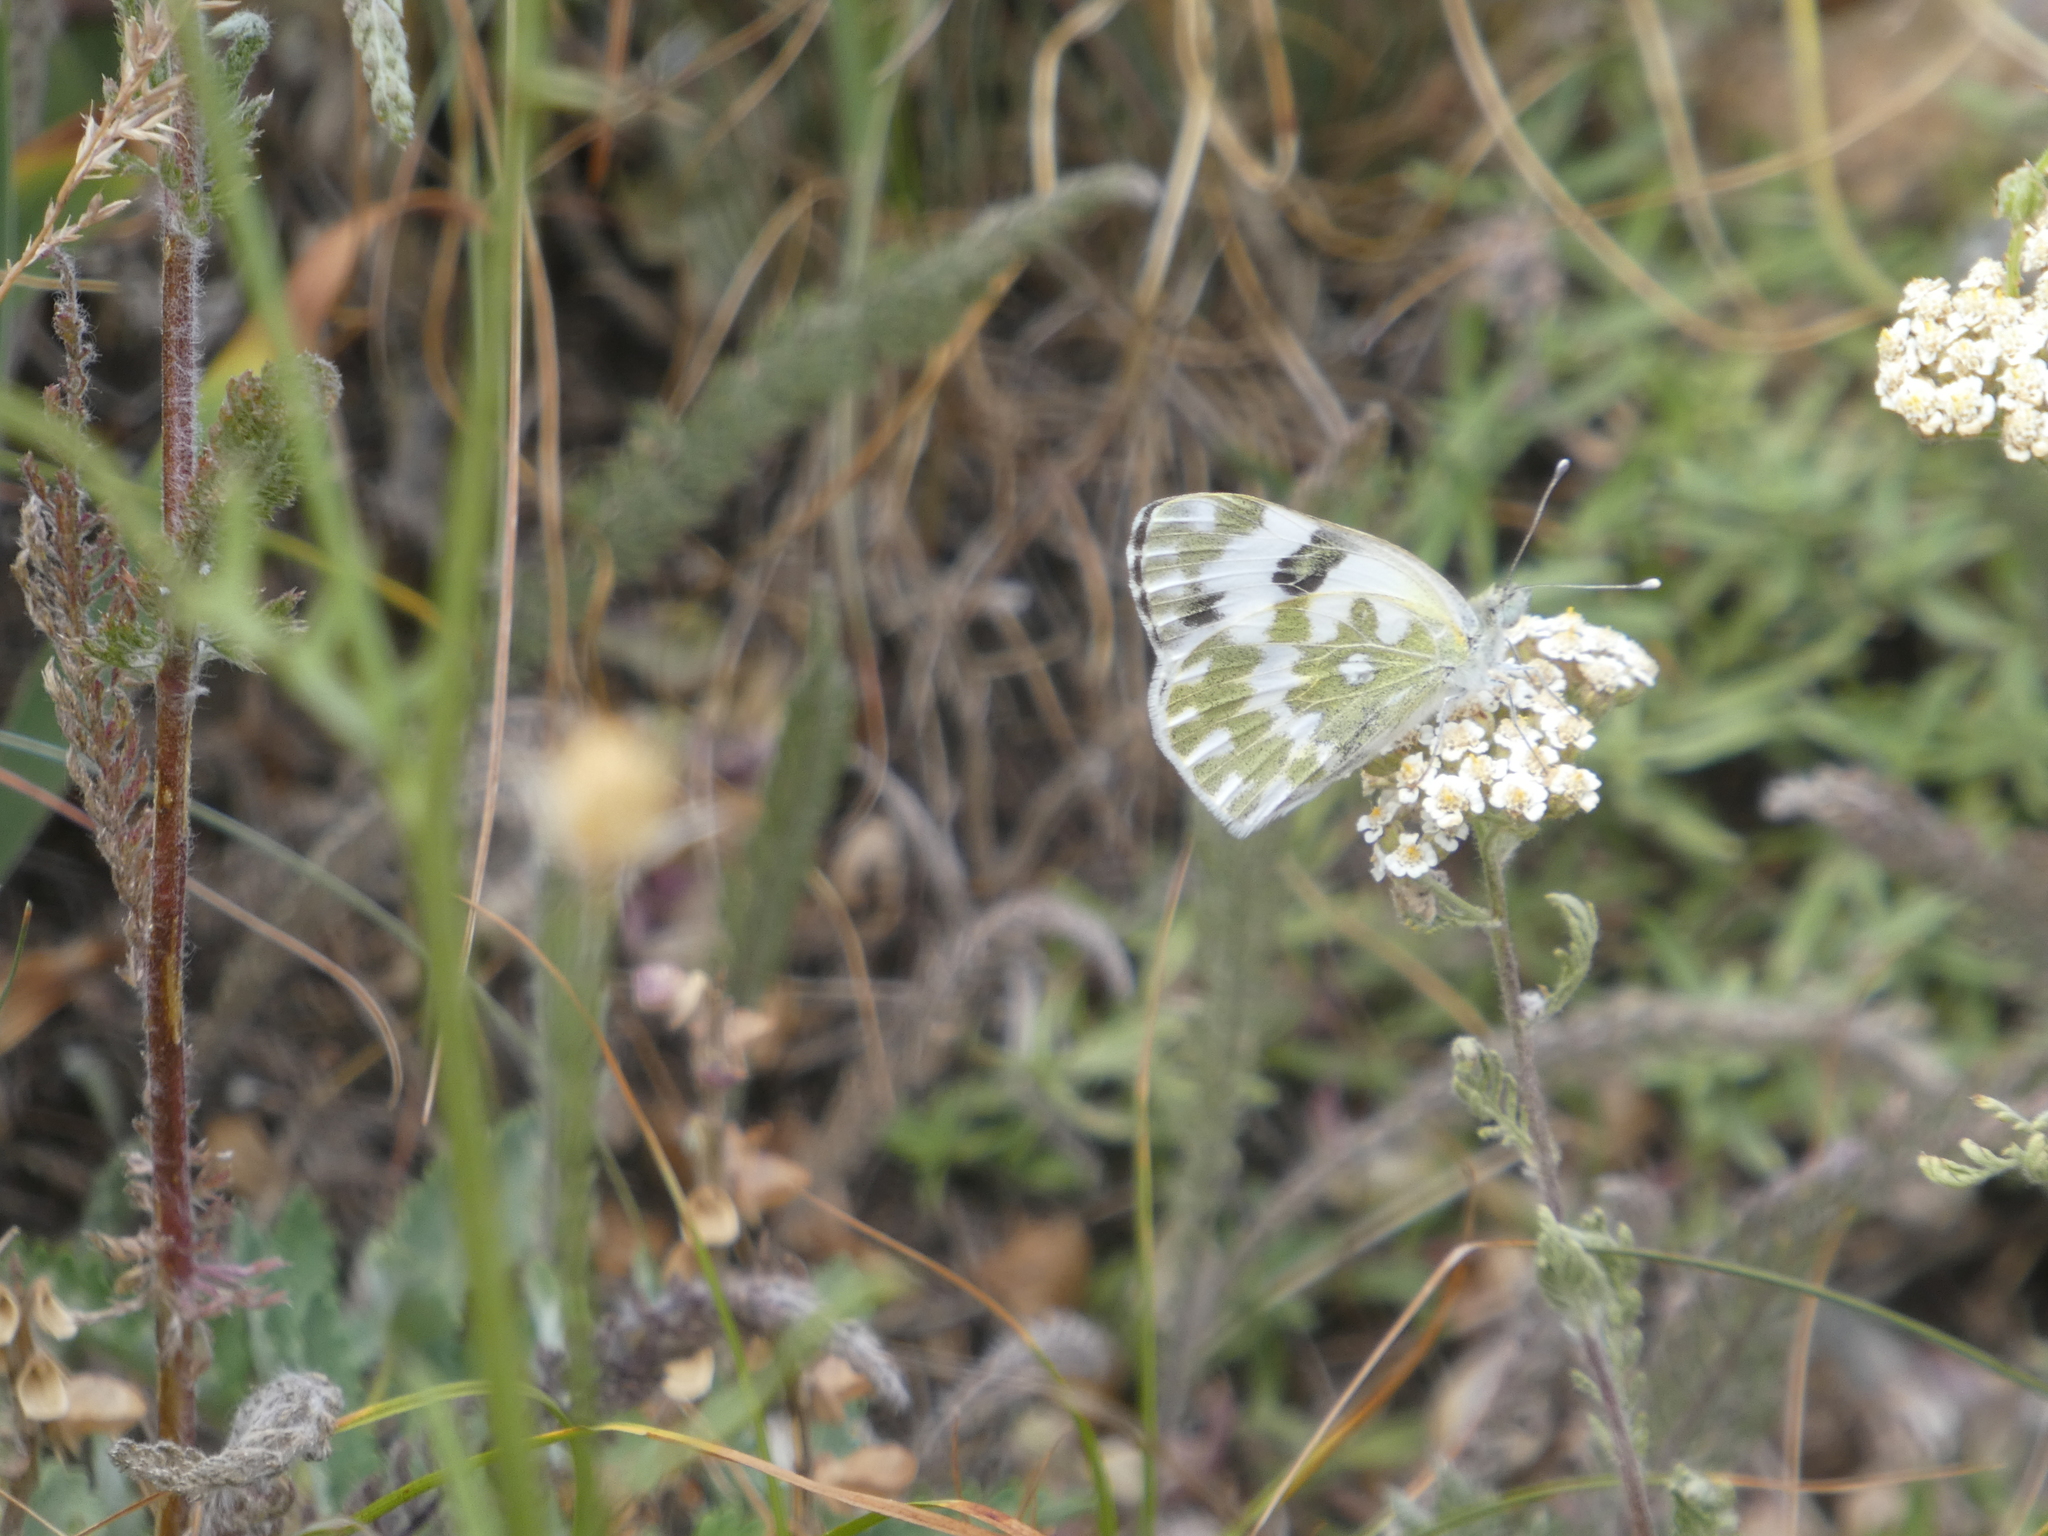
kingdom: Animalia
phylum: Arthropoda
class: Insecta
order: Lepidoptera
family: Pieridae
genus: Pontia
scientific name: Pontia edusa
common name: Eastern bath white
